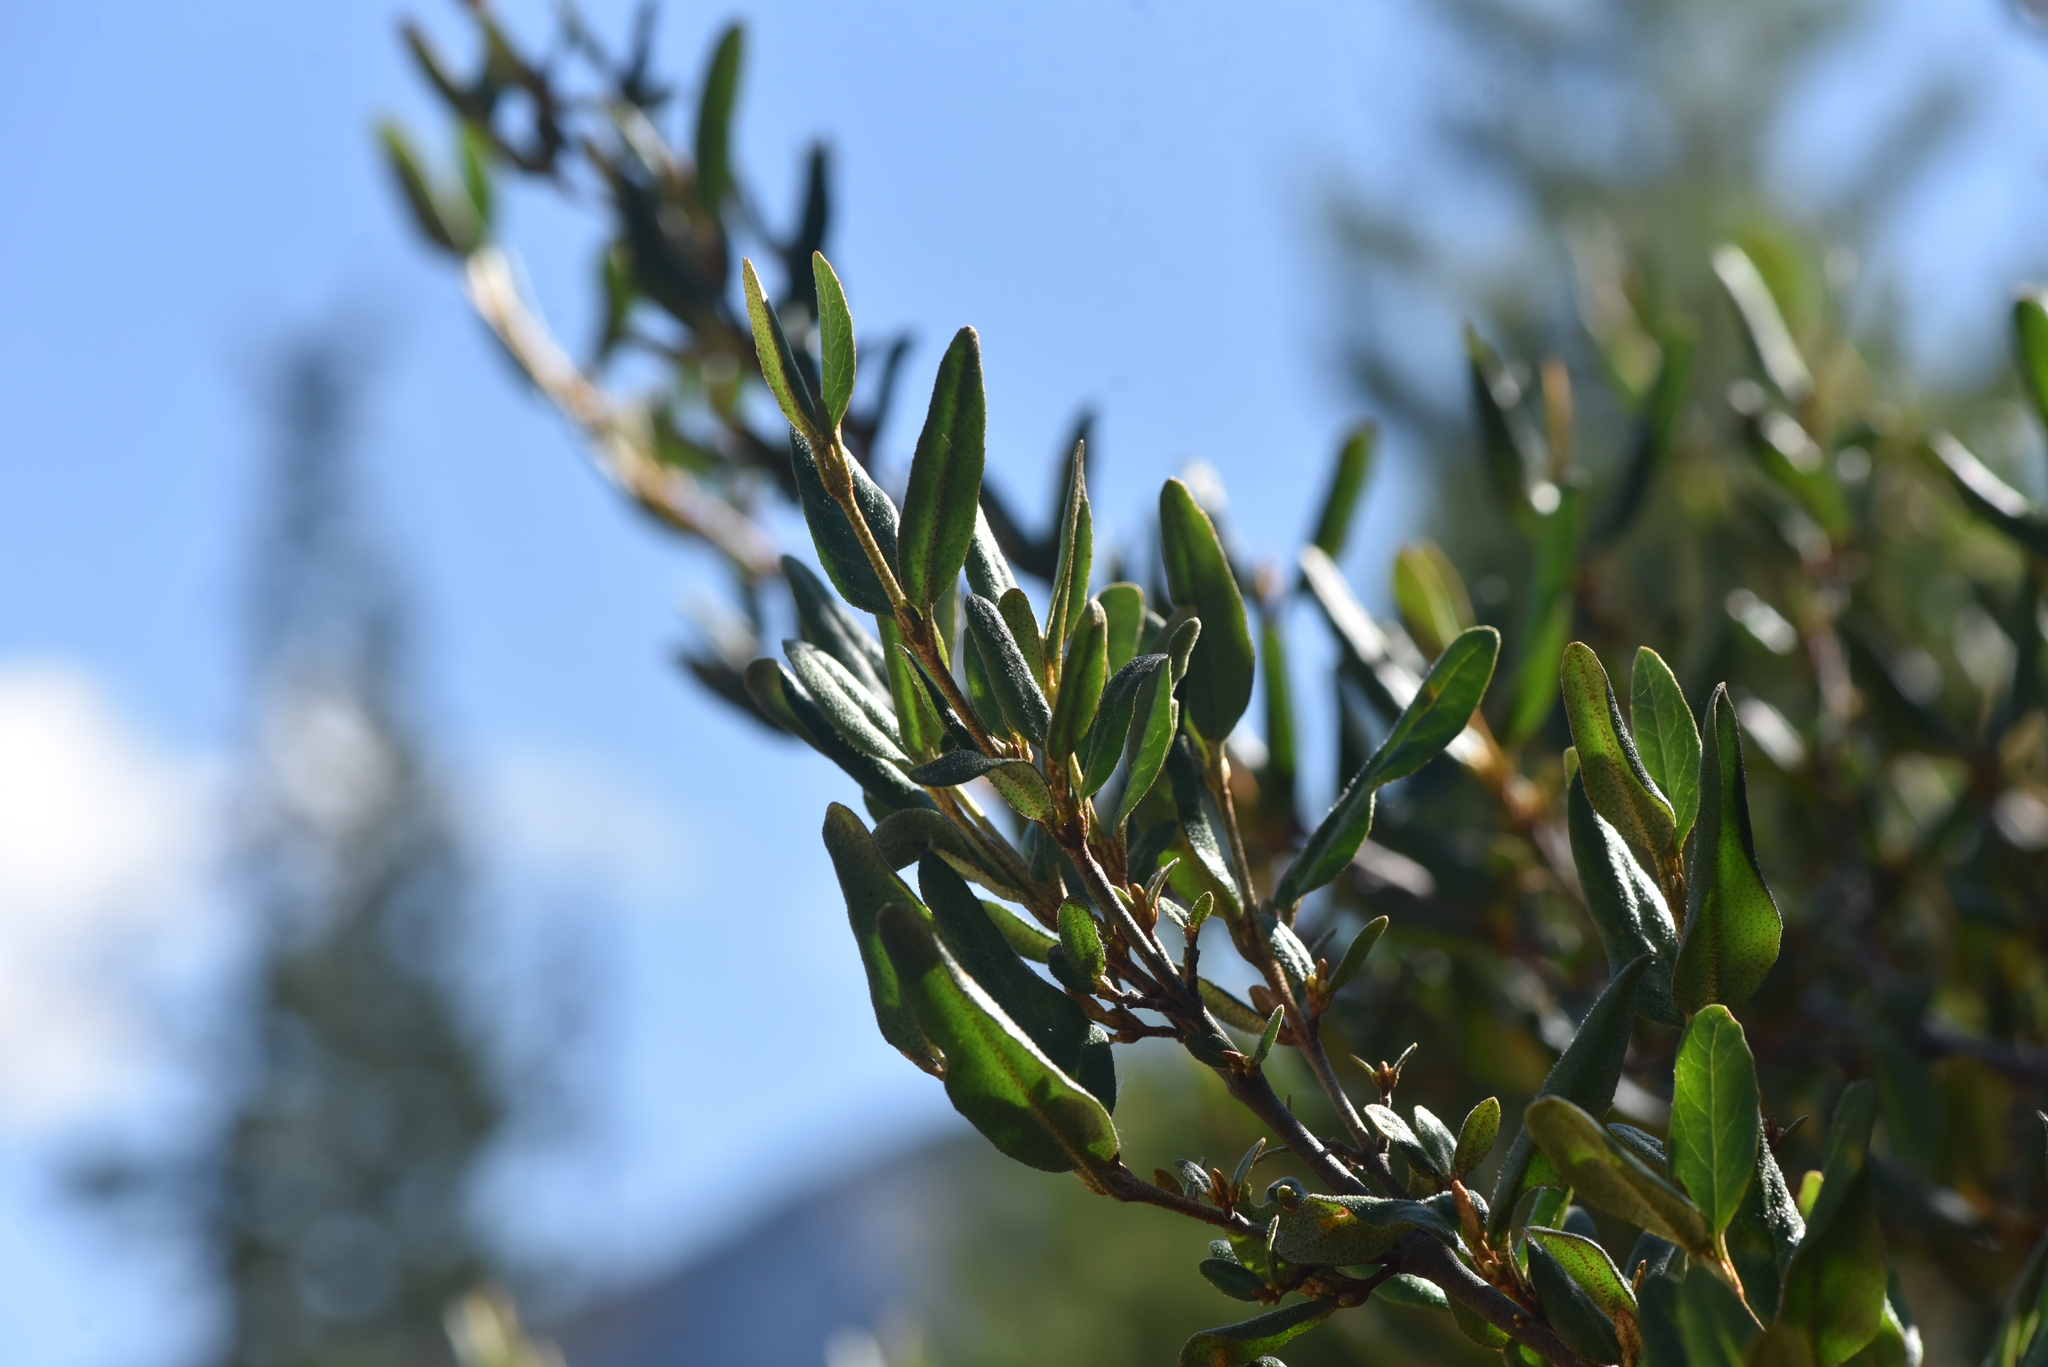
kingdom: Plantae
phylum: Tracheophyta
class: Magnoliopsida
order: Rosales
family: Elaeagnaceae
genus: Shepherdia
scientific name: Shepherdia canadensis
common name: Soapberry
